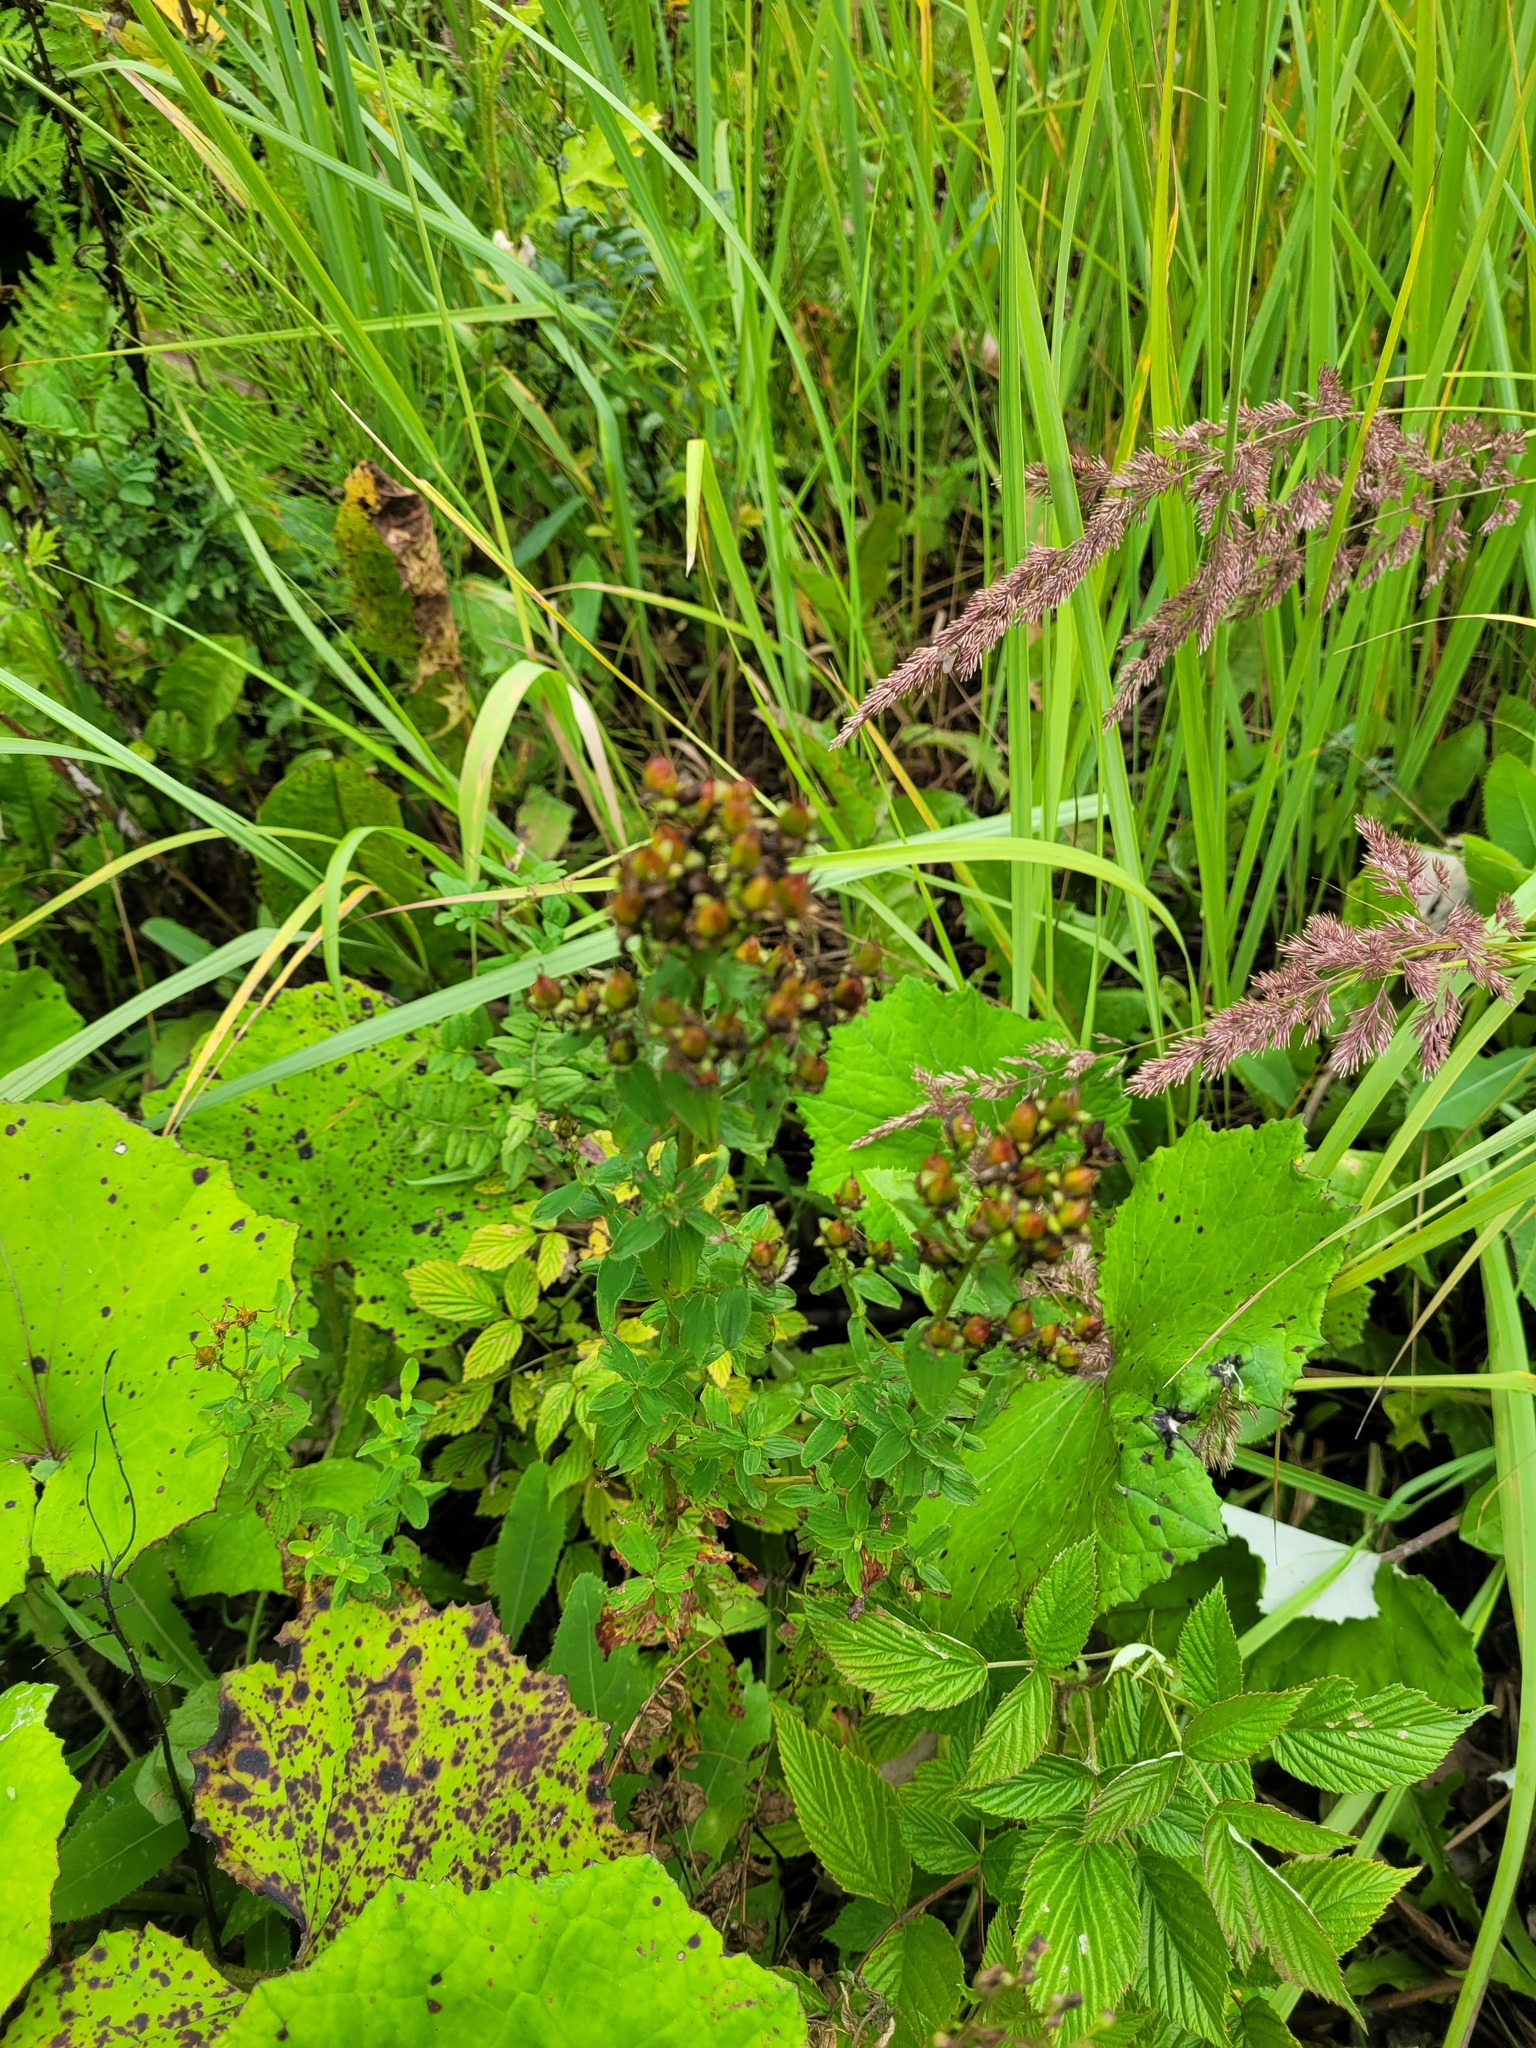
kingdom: Plantae
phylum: Tracheophyta
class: Magnoliopsida
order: Malpighiales
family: Hypericaceae
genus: Hypericum
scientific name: Hypericum maculatum
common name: Imperforate st. john's-wort
